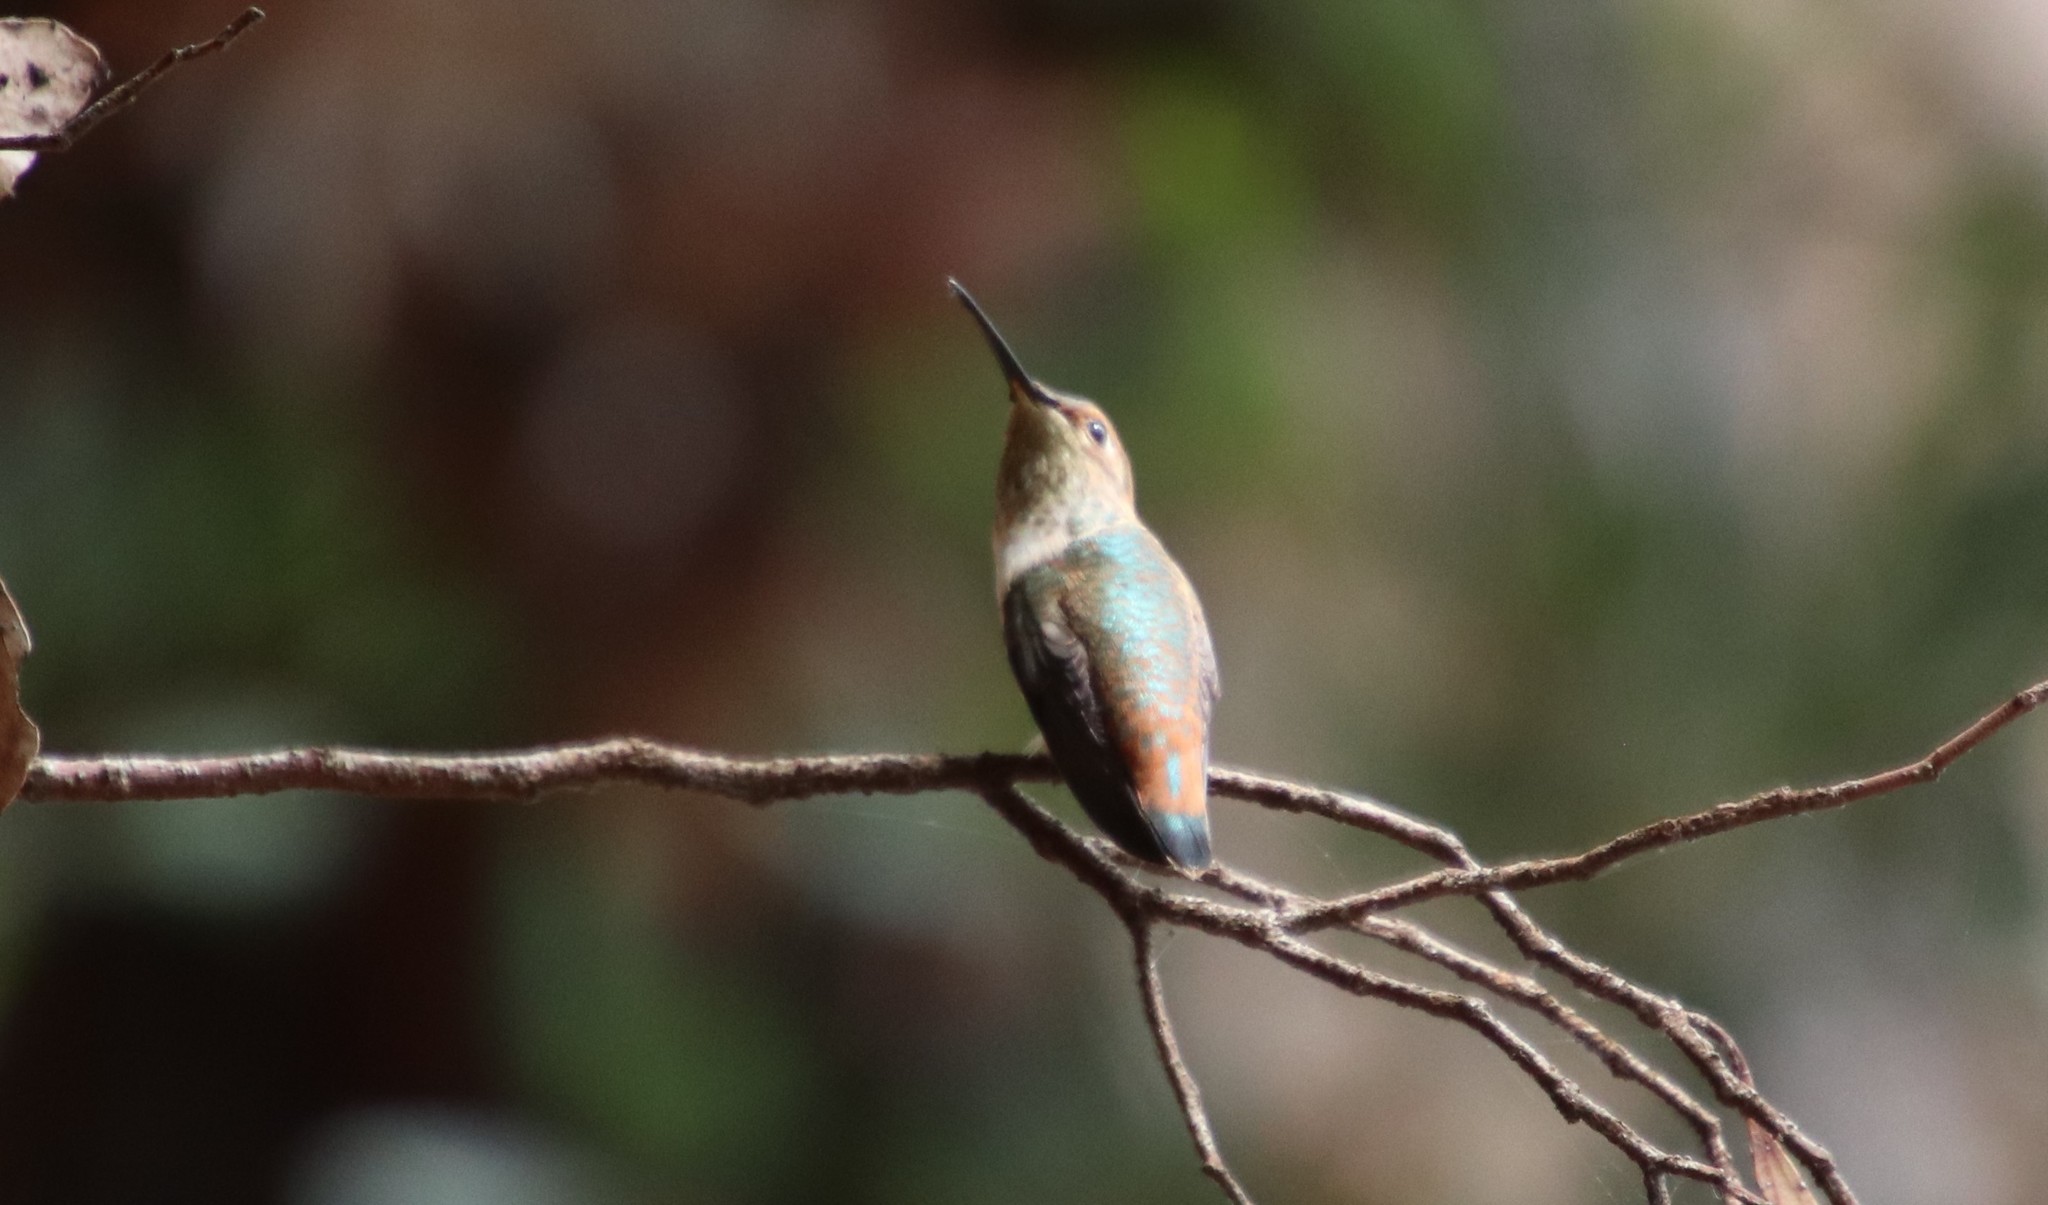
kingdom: Animalia
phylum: Chordata
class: Aves
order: Apodiformes
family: Trochilidae
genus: Selasphorus
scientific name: Selasphorus sasin
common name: Allen's hummingbird
